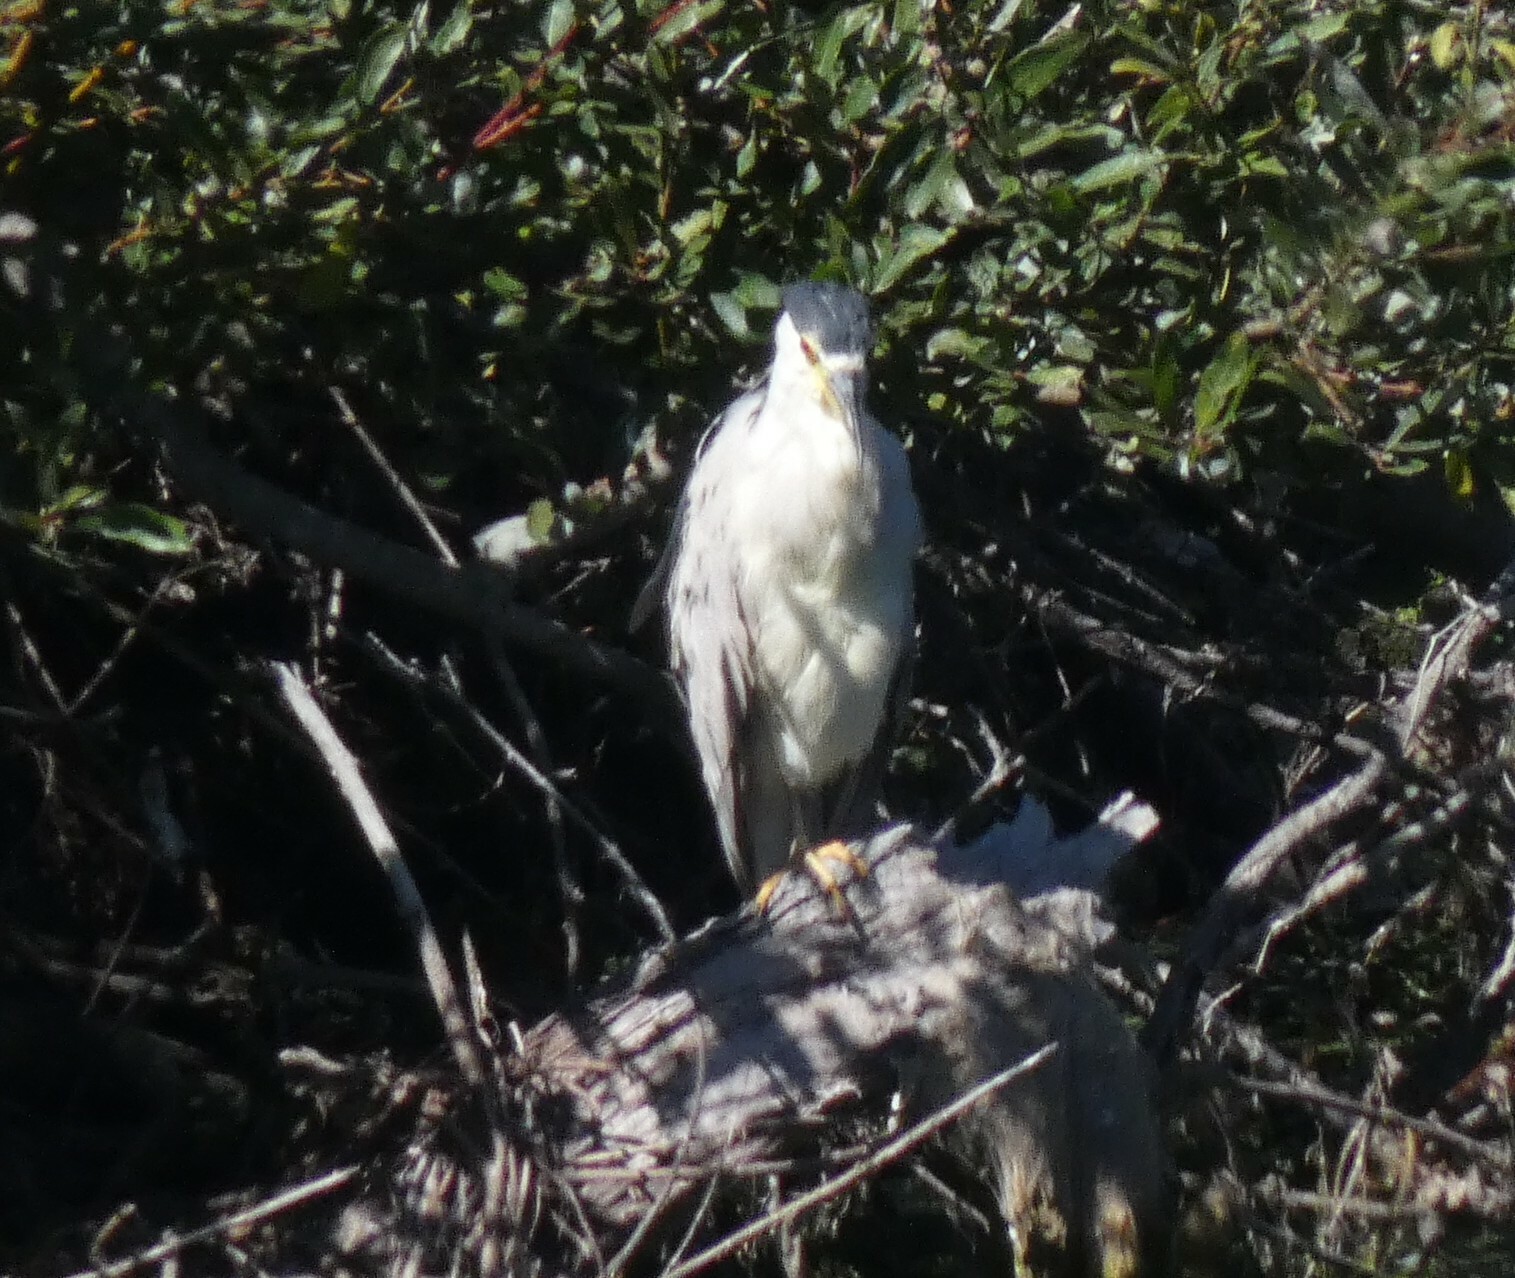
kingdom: Animalia
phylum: Chordata
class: Aves
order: Pelecaniformes
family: Ardeidae
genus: Nycticorax
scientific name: Nycticorax nycticorax
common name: Black-crowned night heron
